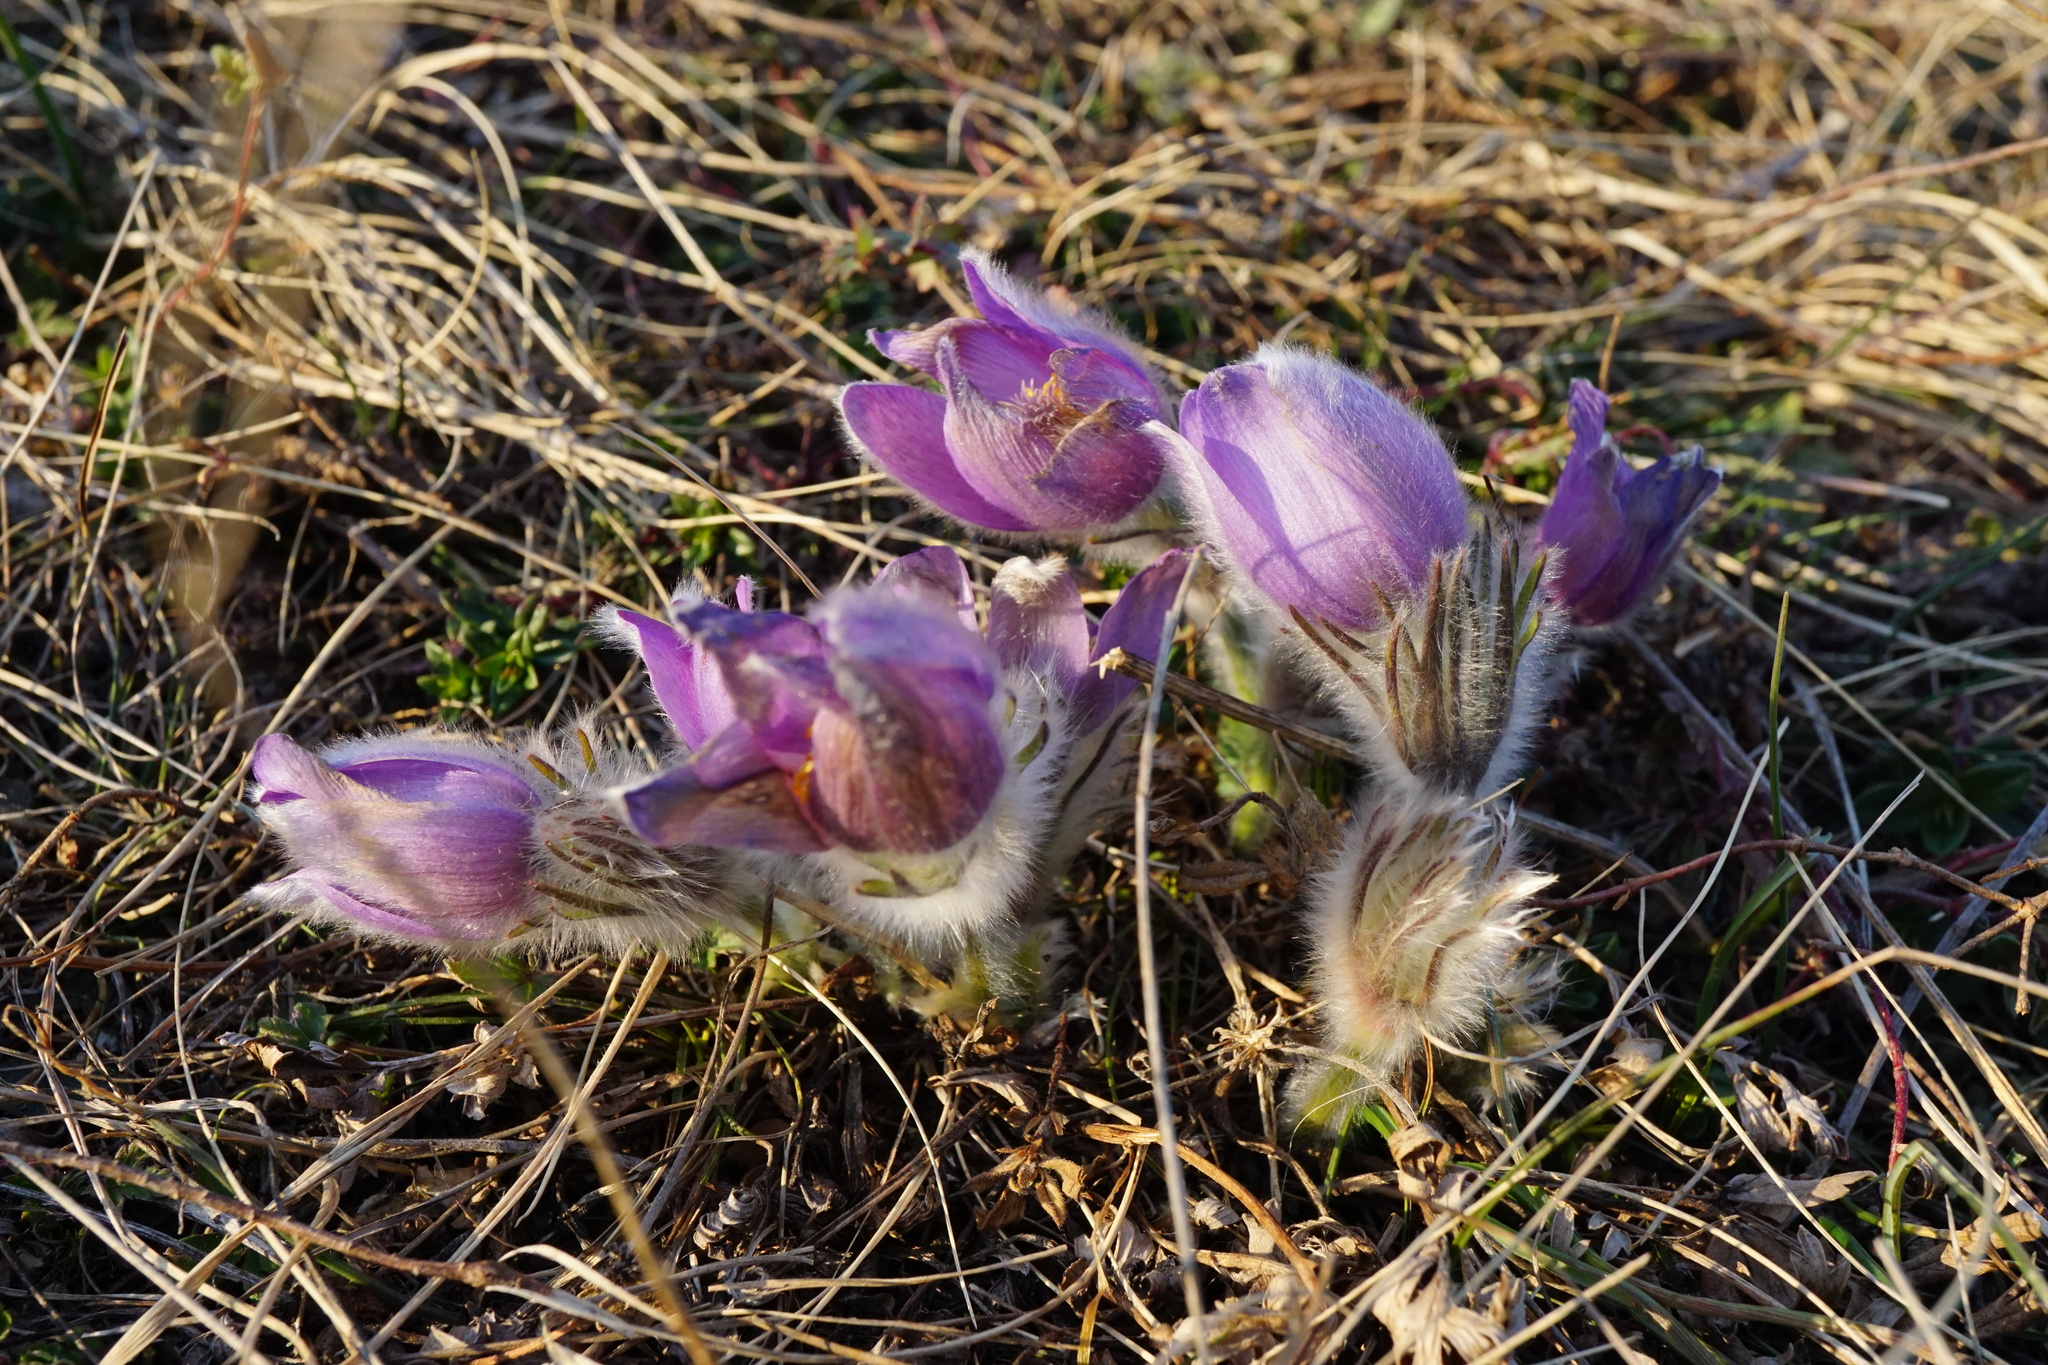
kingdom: Plantae
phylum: Tracheophyta
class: Magnoliopsida
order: Ranunculales
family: Ranunculaceae
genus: Pulsatilla
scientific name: Pulsatilla grandis
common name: Greater pasque flower
